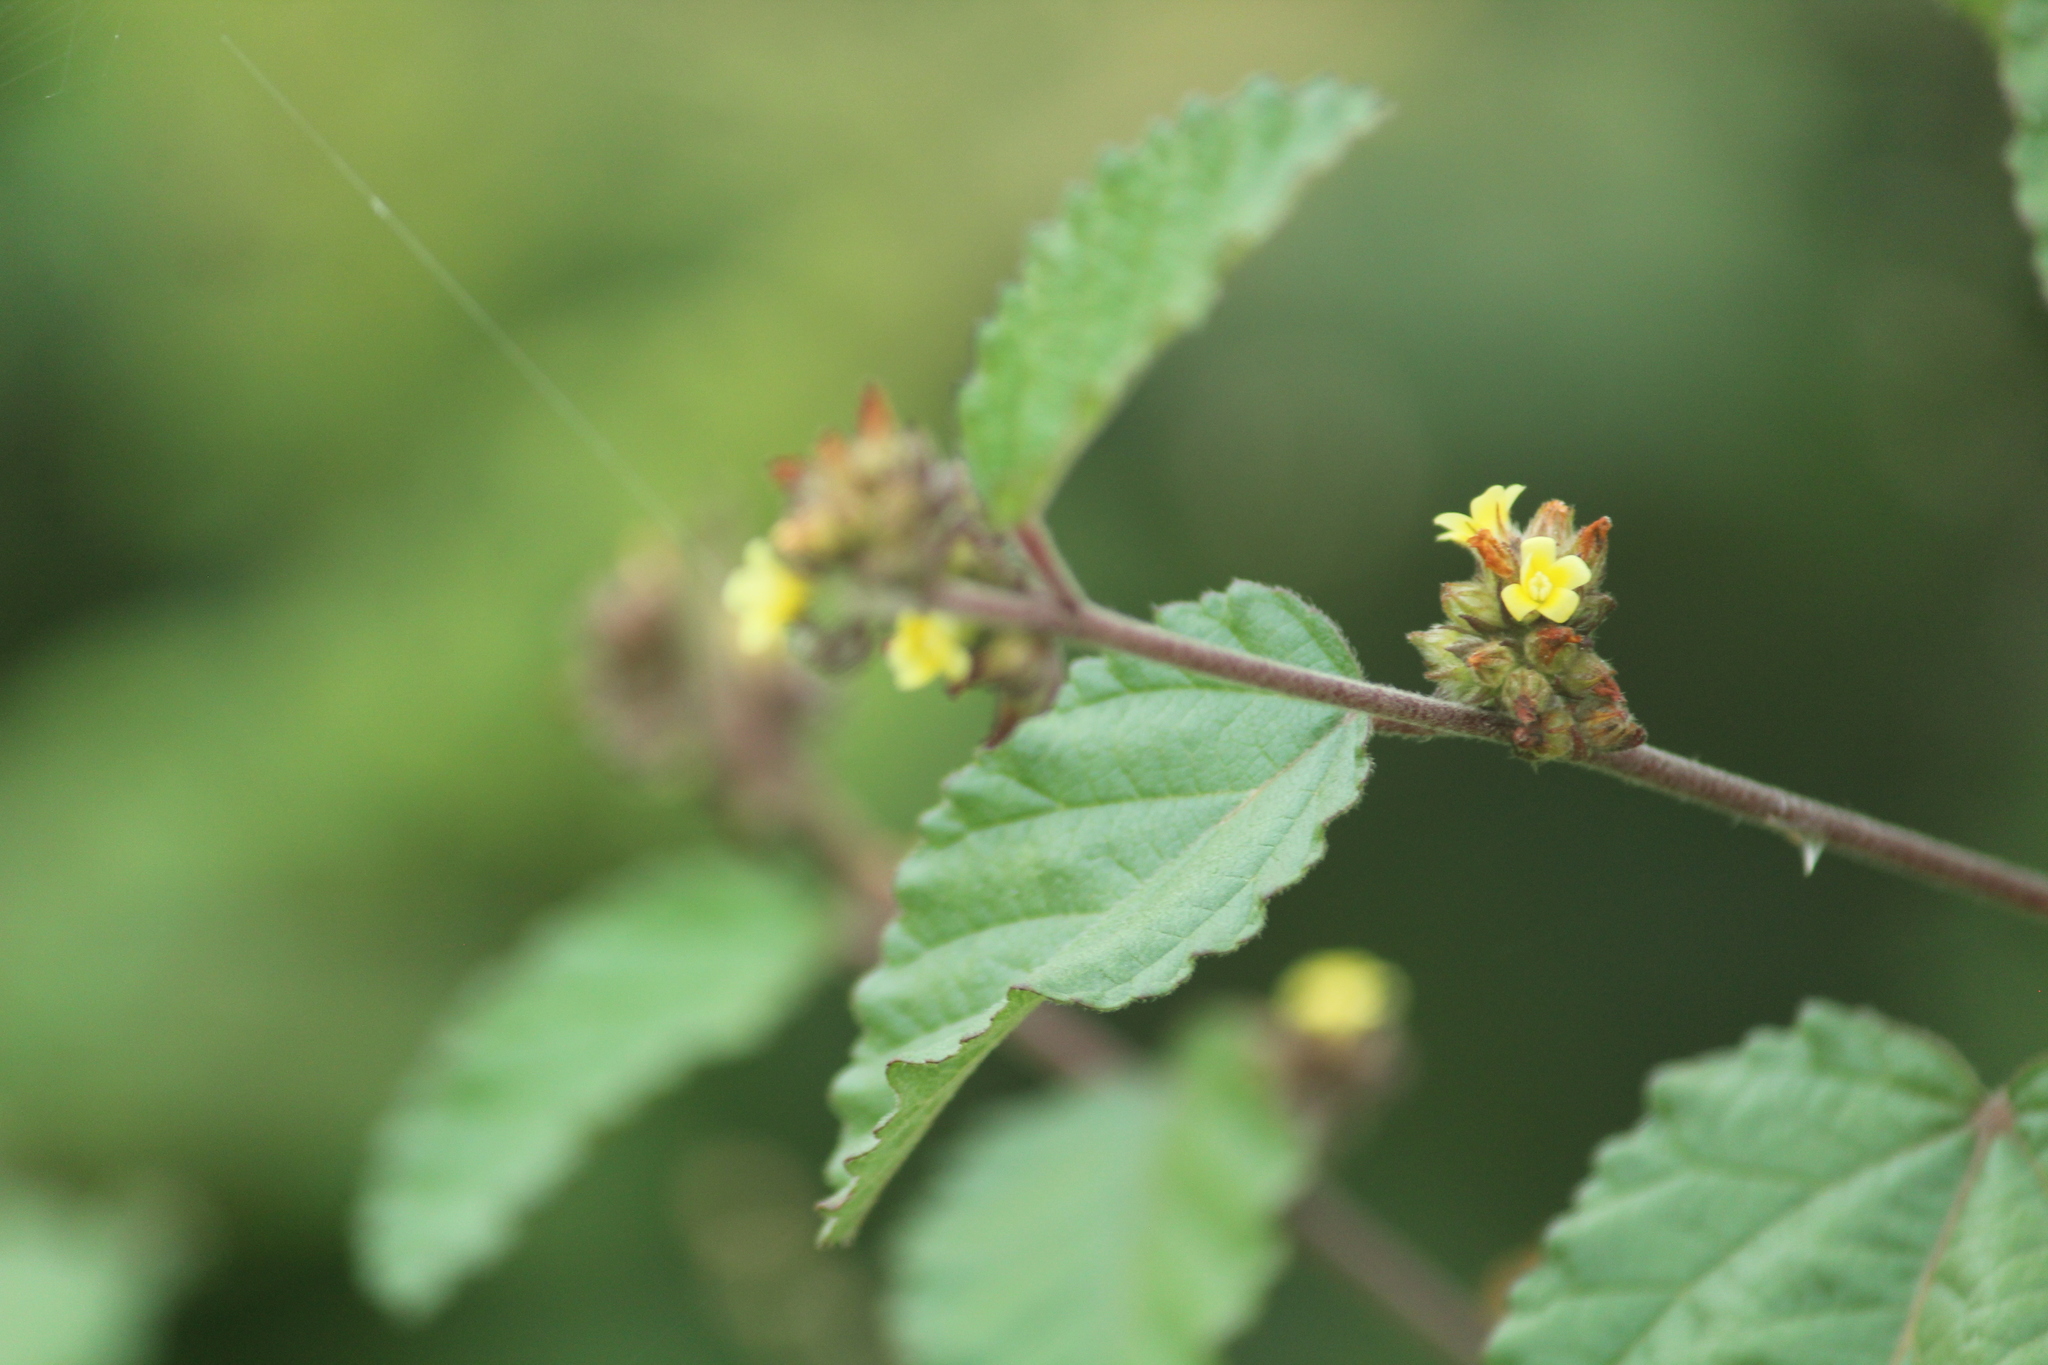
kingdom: Plantae
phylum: Tracheophyta
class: Magnoliopsida
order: Malvales
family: Malvaceae
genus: Waltheria
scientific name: Waltheria indica
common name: Leather-coat
